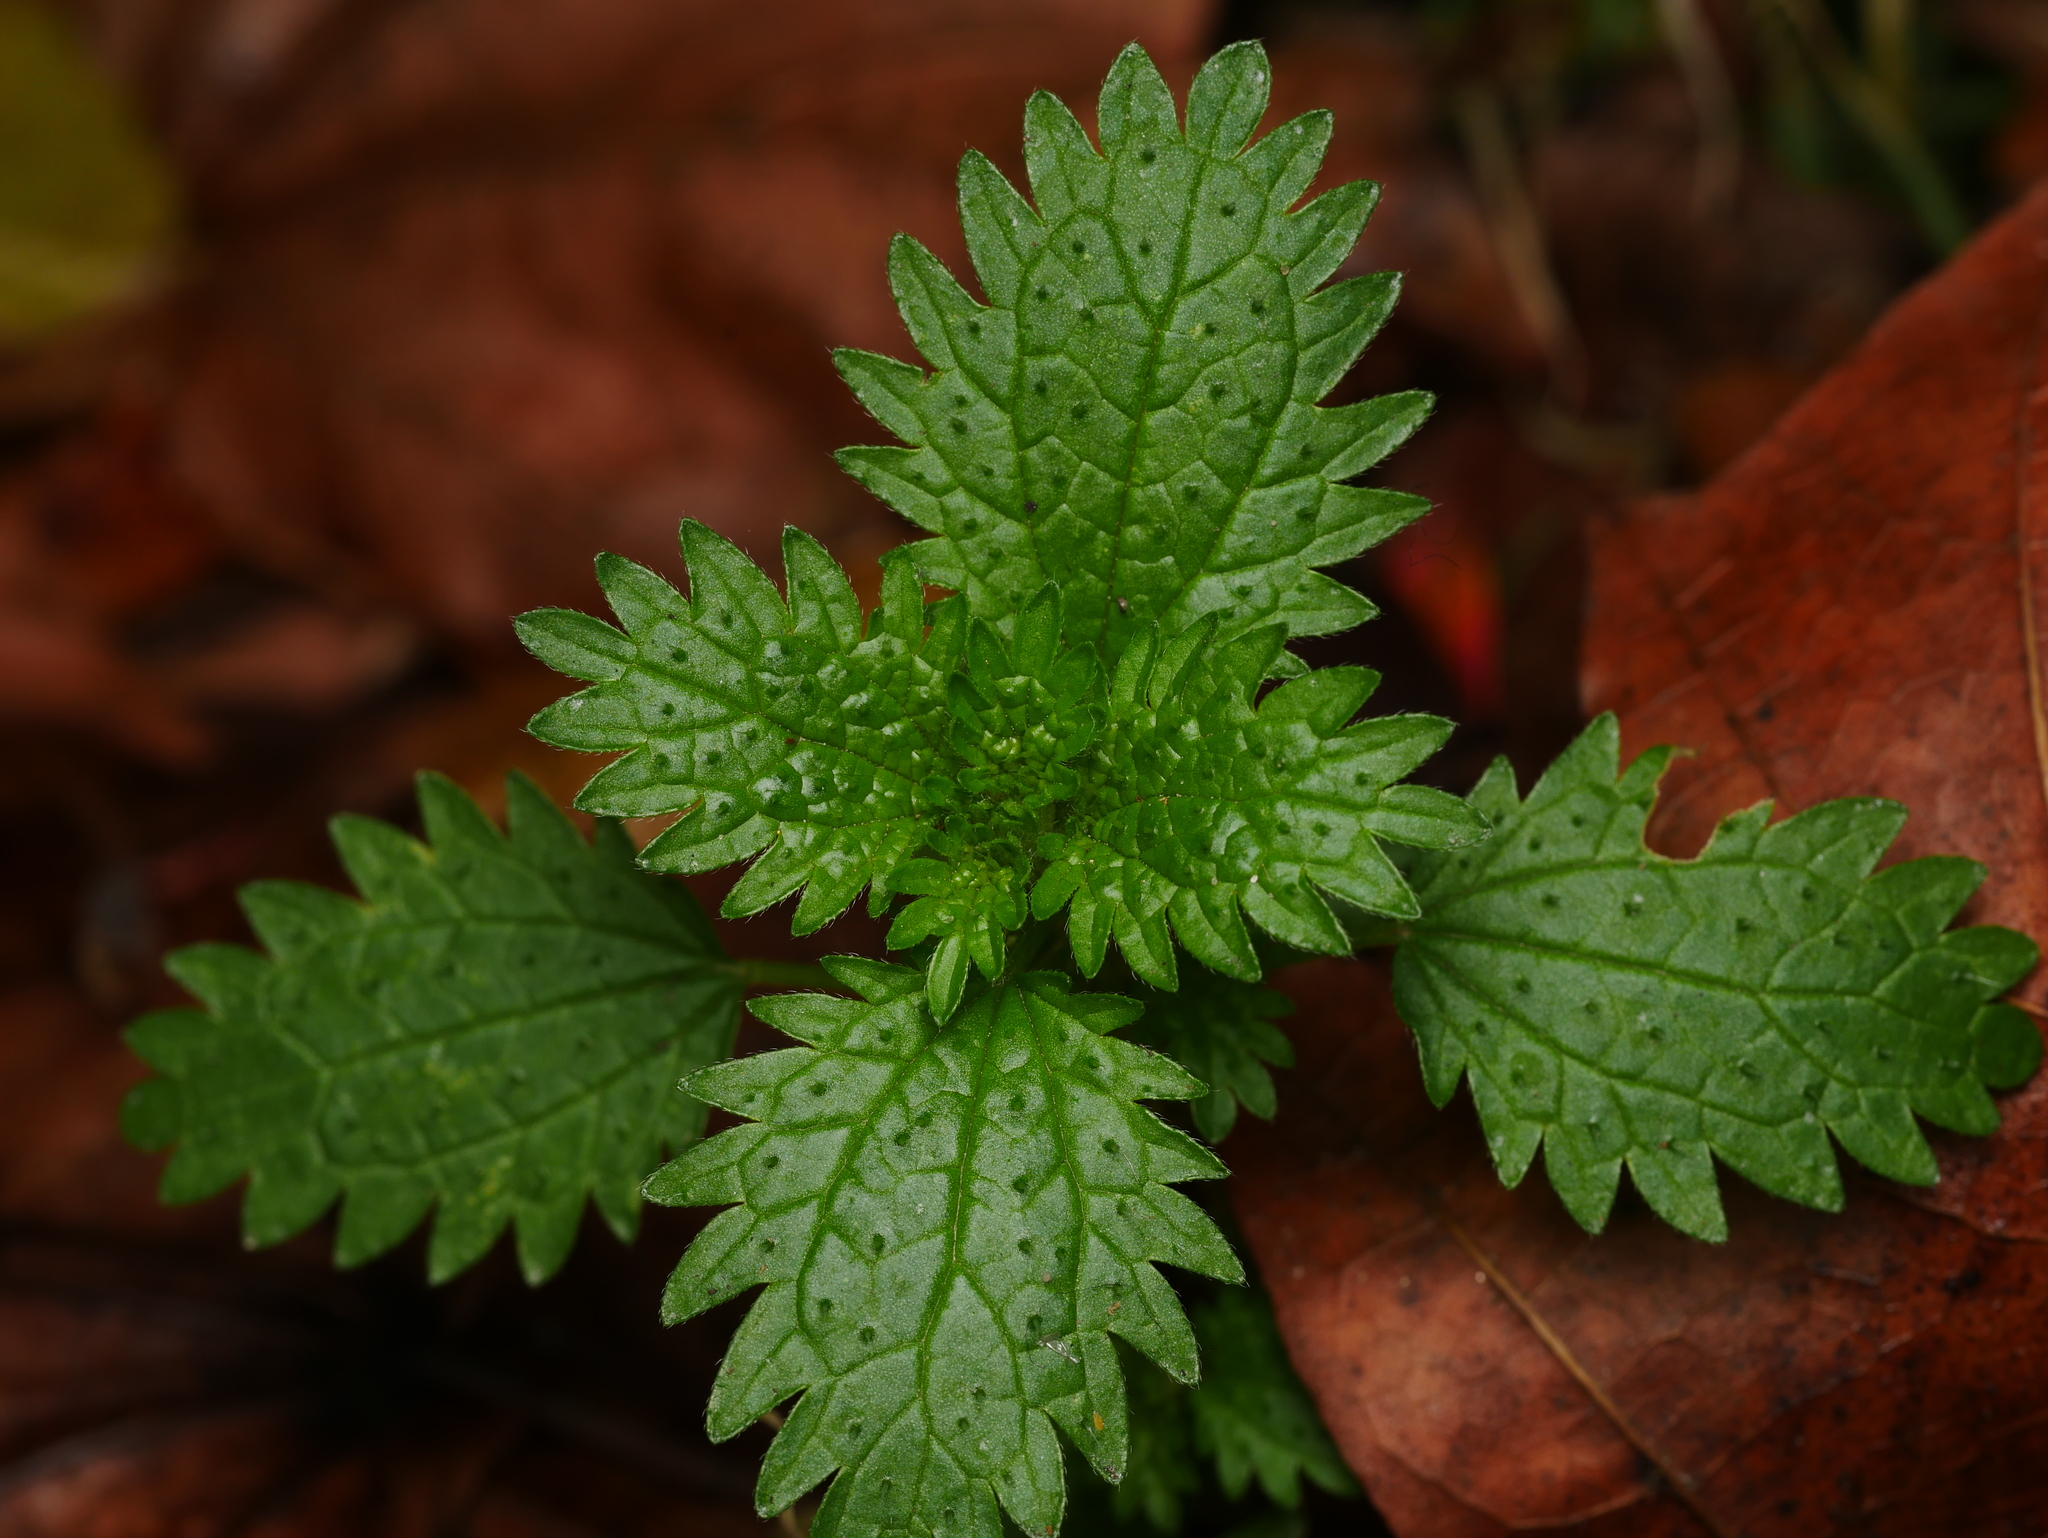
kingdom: Plantae
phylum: Tracheophyta
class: Magnoliopsida
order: Rosales
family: Urticaceae
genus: Urtica
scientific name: Urtica urens
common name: Dwarf nettle
